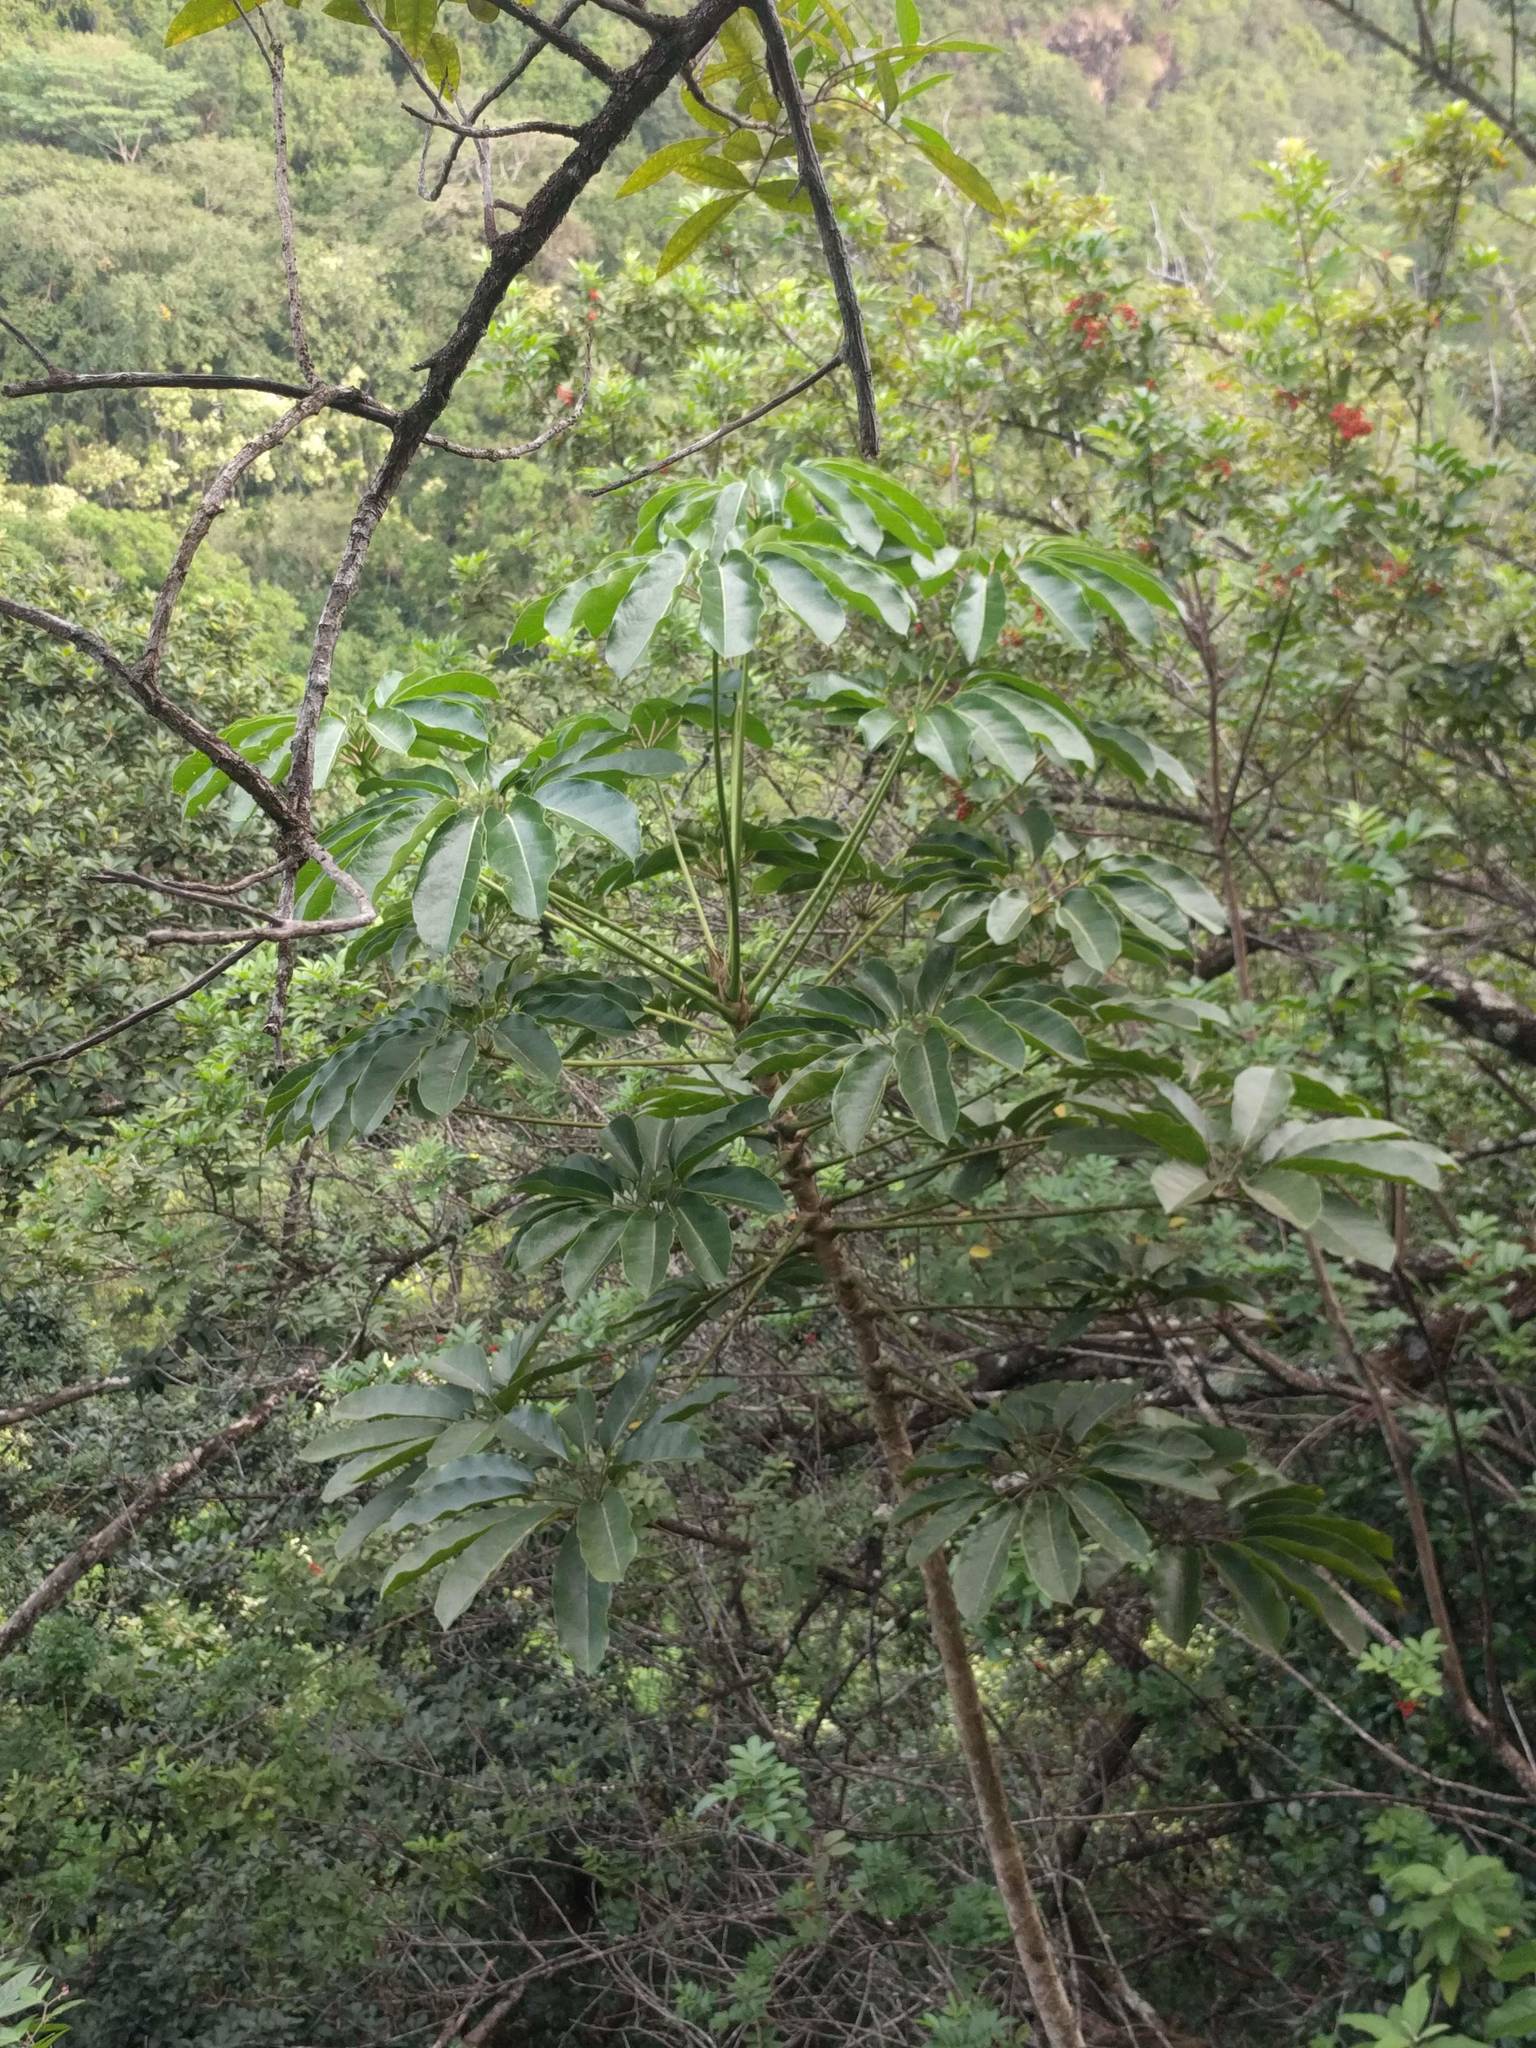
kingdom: Plantae
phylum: Tracheophyta
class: Magnoliopsida
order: Apiales
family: Araliaceae
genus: Heptapleurum
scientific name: Heptapleurum actinophyllum
